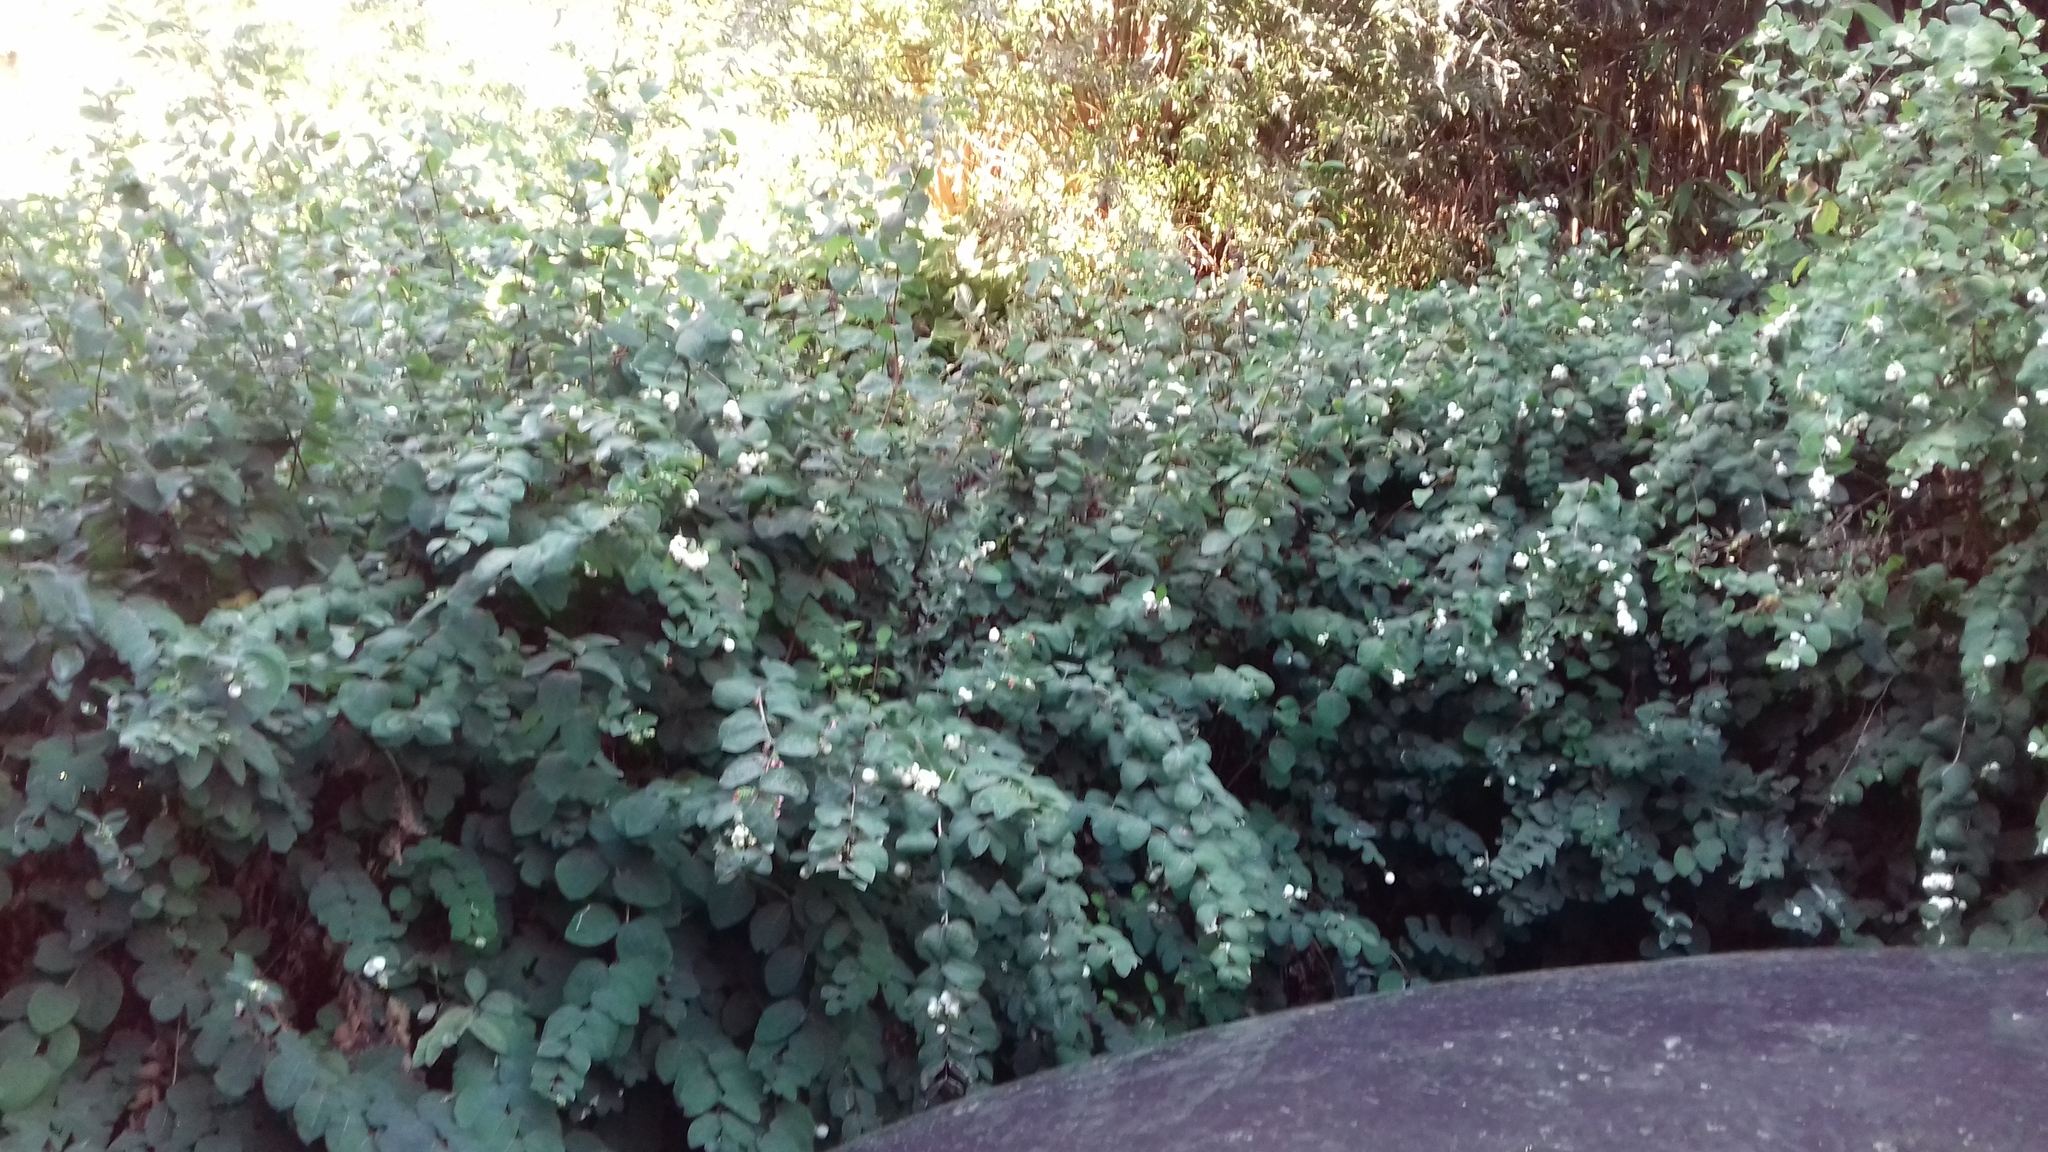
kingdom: Animalia
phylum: Arthropoda
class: Insecta
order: Hymenoptera
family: Vespidae
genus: Vespa
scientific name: Vespa velutina
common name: Asian hornet
